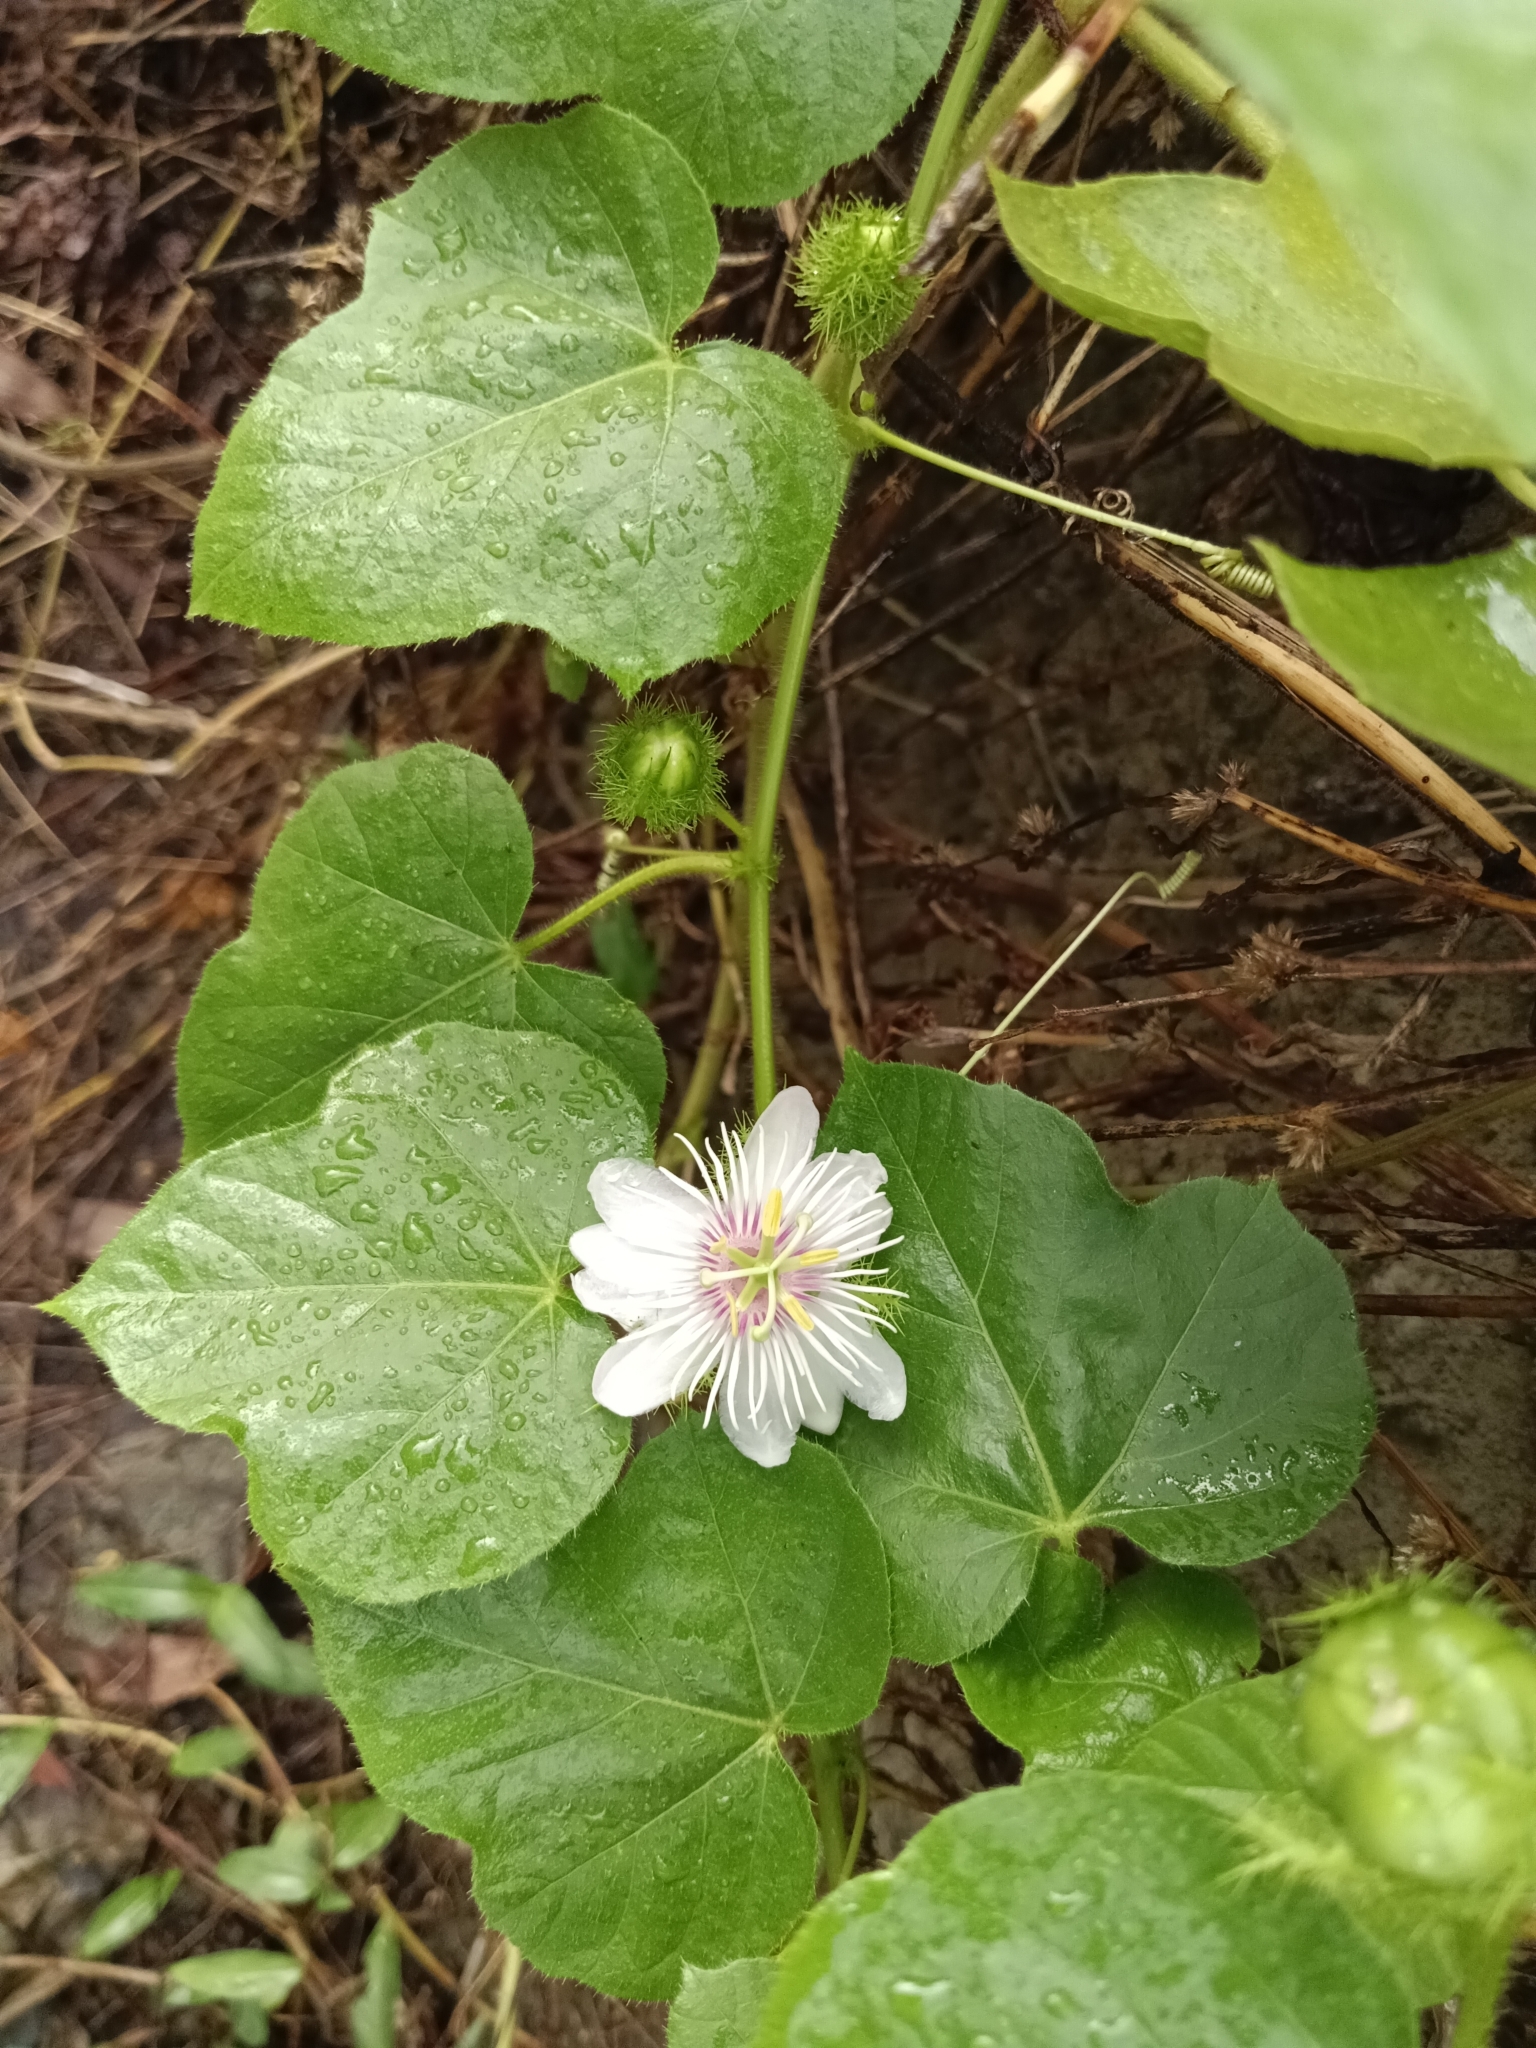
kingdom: Plantae
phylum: Tracheophyta
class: Magnoliopsida
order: Malpighiales
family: Passifloraceae
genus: Passiflora
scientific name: Passiflora vesicaria
